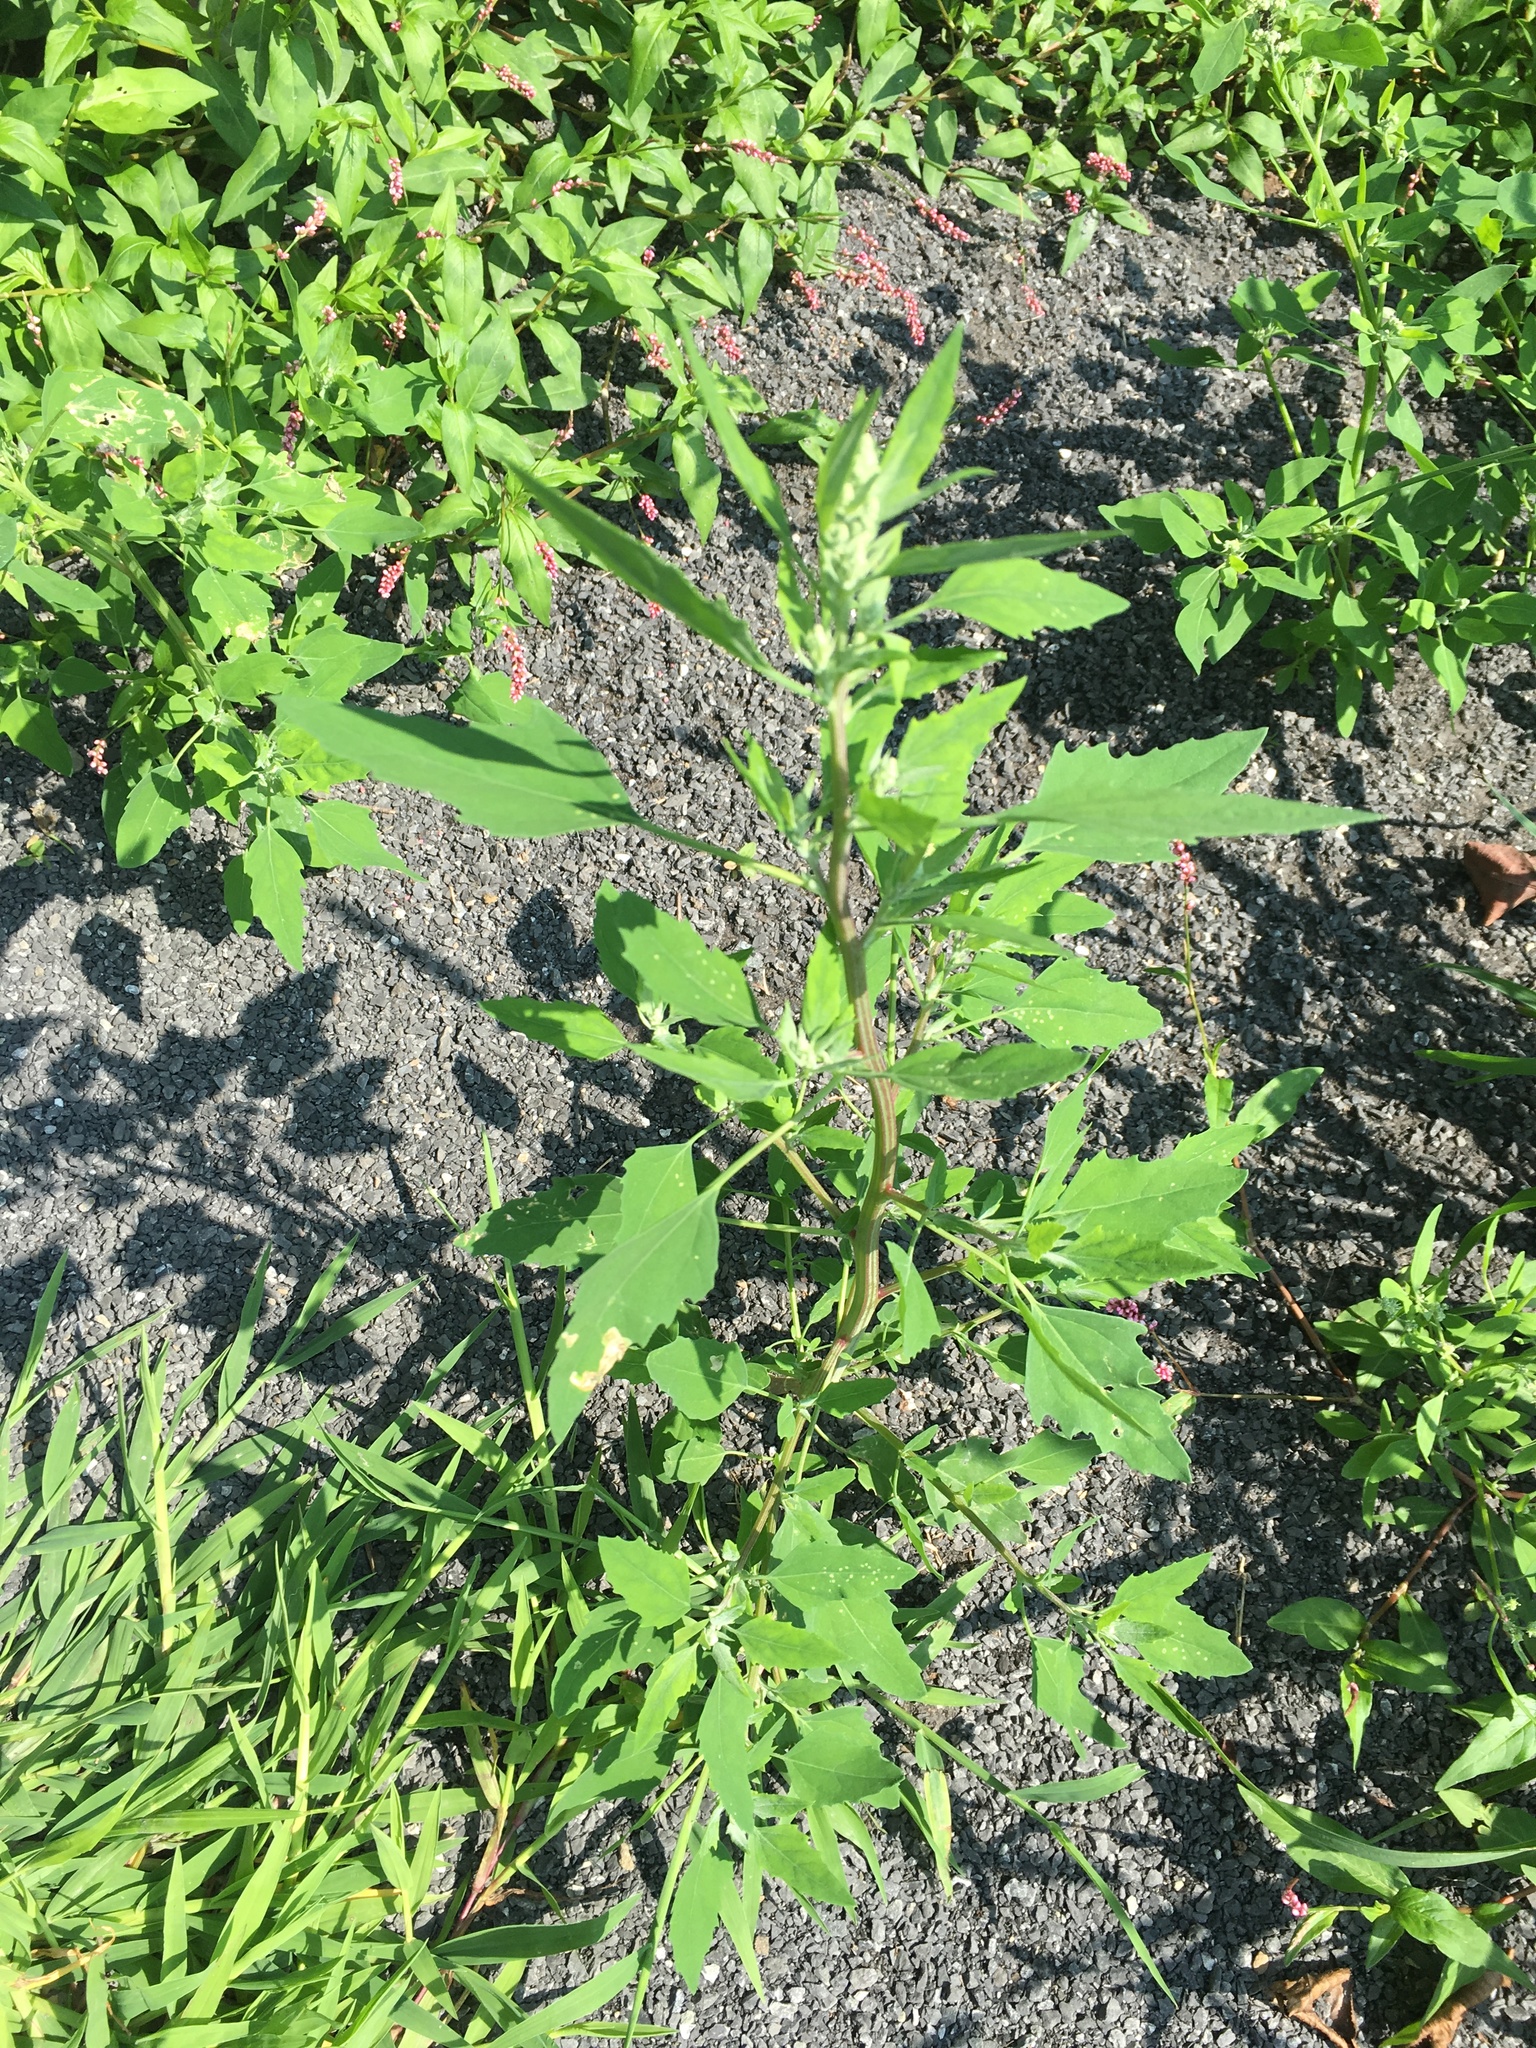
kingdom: Plantae
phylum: Tracheophyta
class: Magnoliopsida
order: Caryophyllales
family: Amaranthaceae
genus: Chenopodium
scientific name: Chenopodium album
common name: Fat-hen
